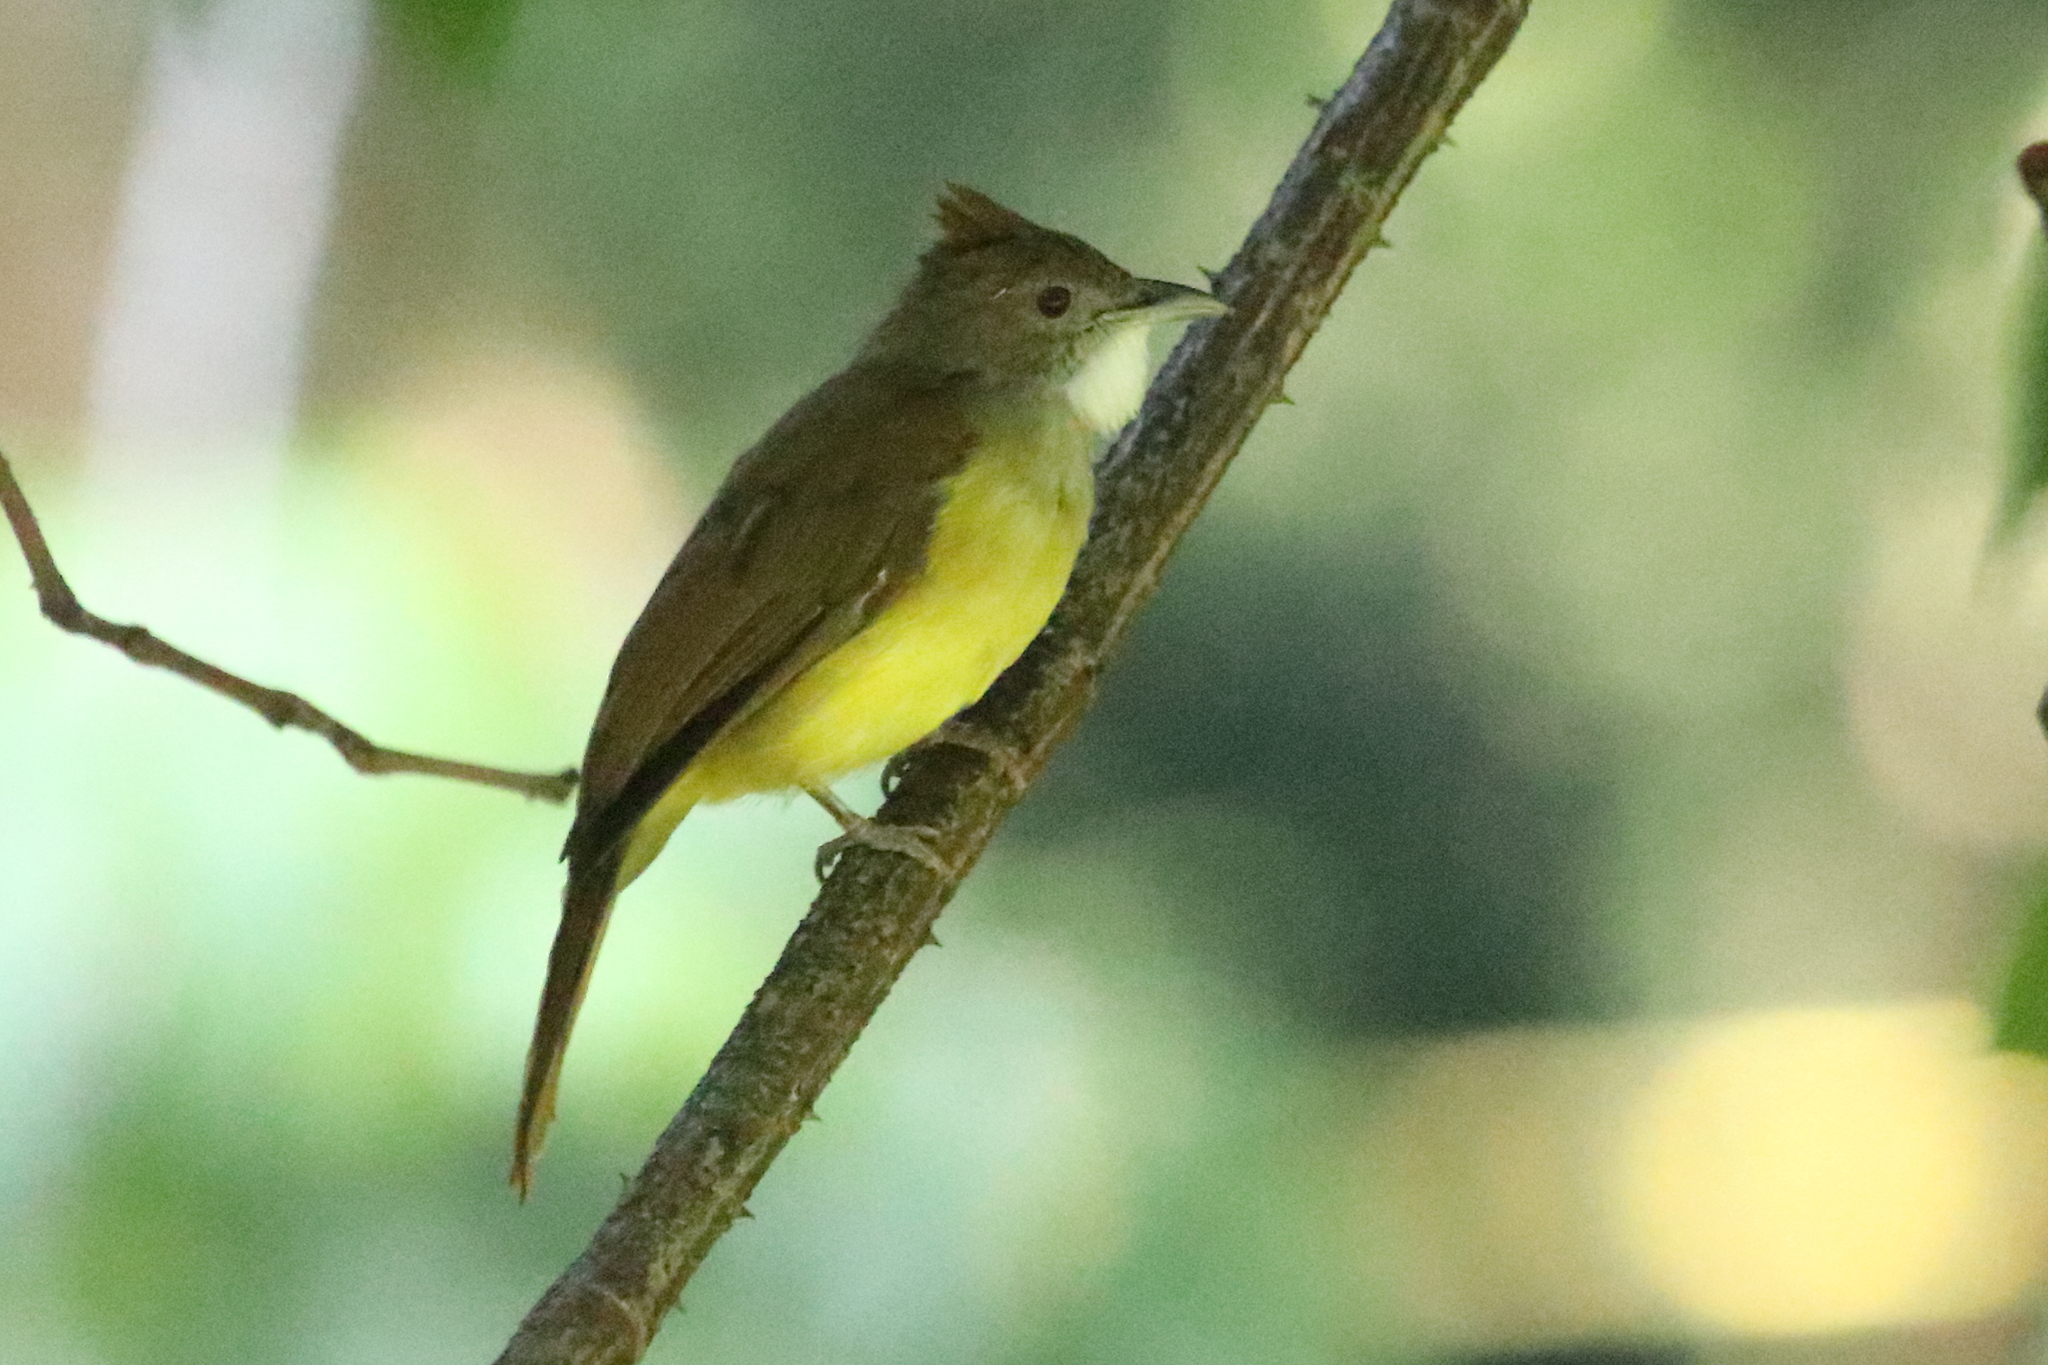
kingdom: Animalia
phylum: Chordata
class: Aves
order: Passeriformes
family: Pycnonotidae
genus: Alophoixus
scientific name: Alophoixus bres
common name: Gray-cheeked bulbul
